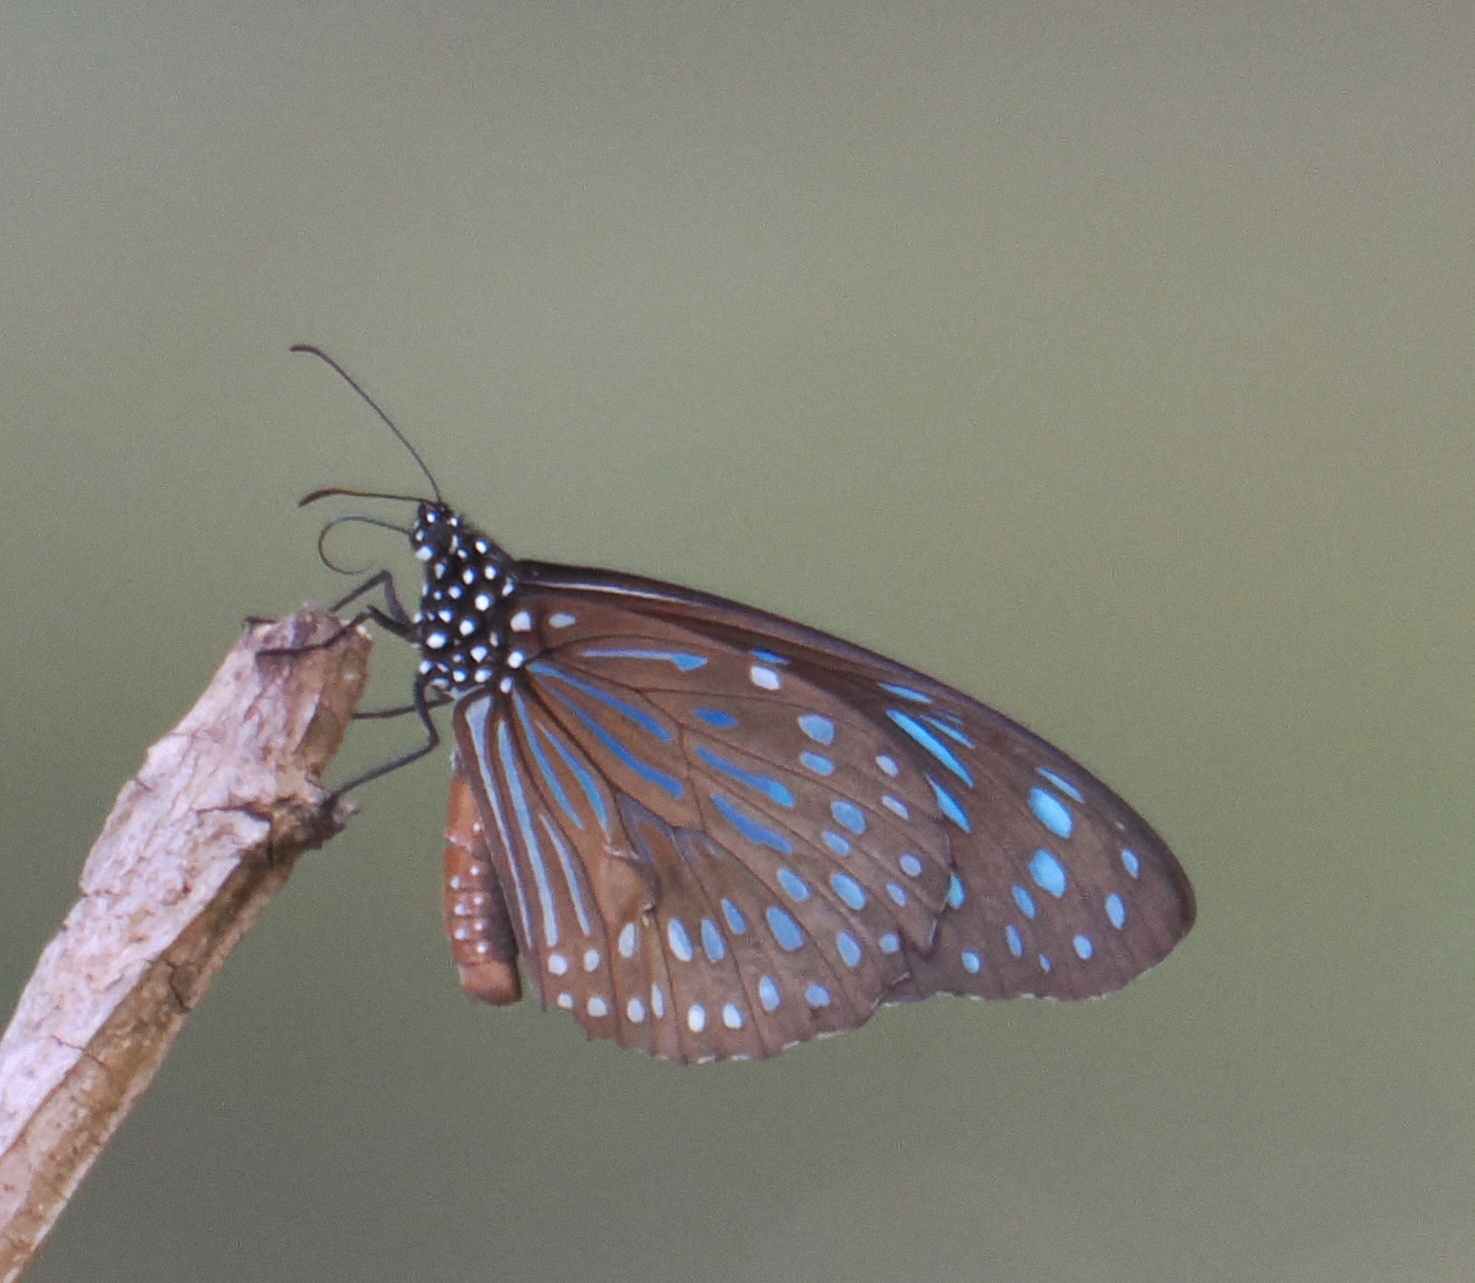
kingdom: Animalia
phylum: Arthropoda
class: Insecta
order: Lepidoptera
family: Nymphalidae
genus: Tirumala
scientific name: Tirumala septentrionis
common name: Dark blue tiger butterfly
